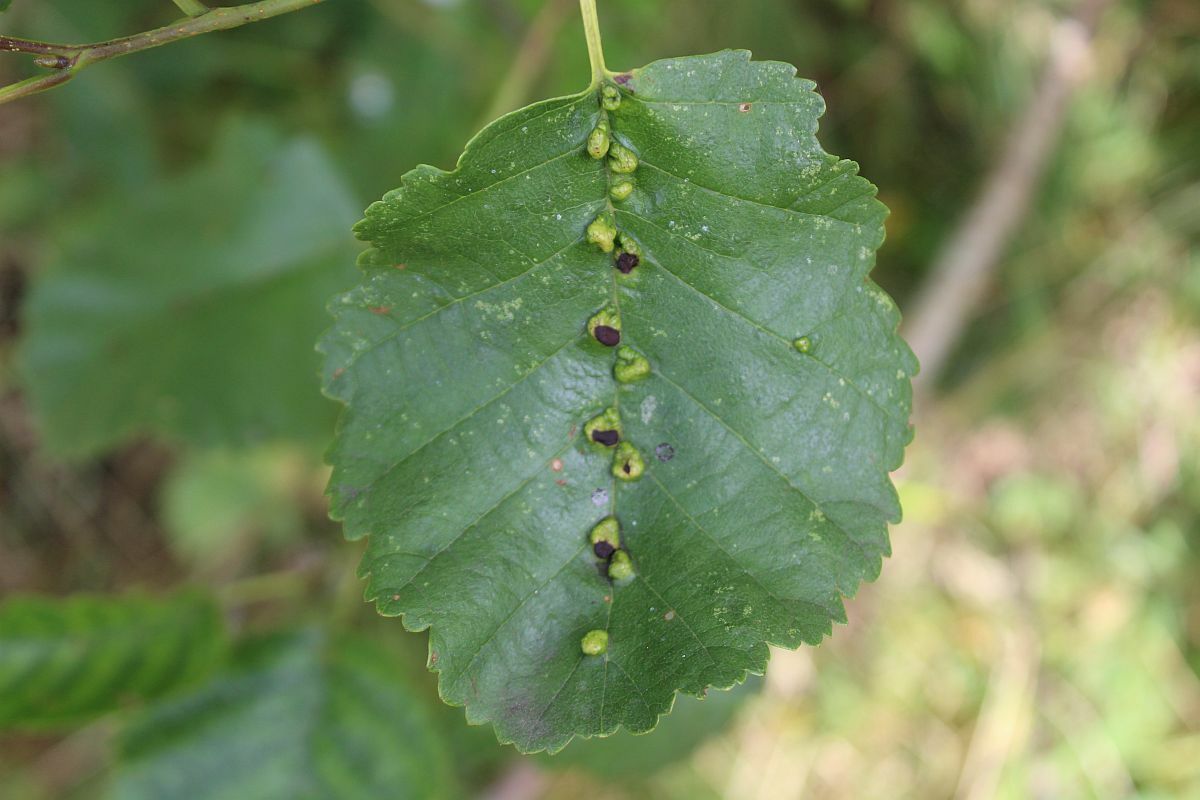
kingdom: Animalia
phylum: Arthropoda
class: Arachnida
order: Trombidiformes
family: Eriophyidae
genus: Eriophyes
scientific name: Eriophyes inangulis
